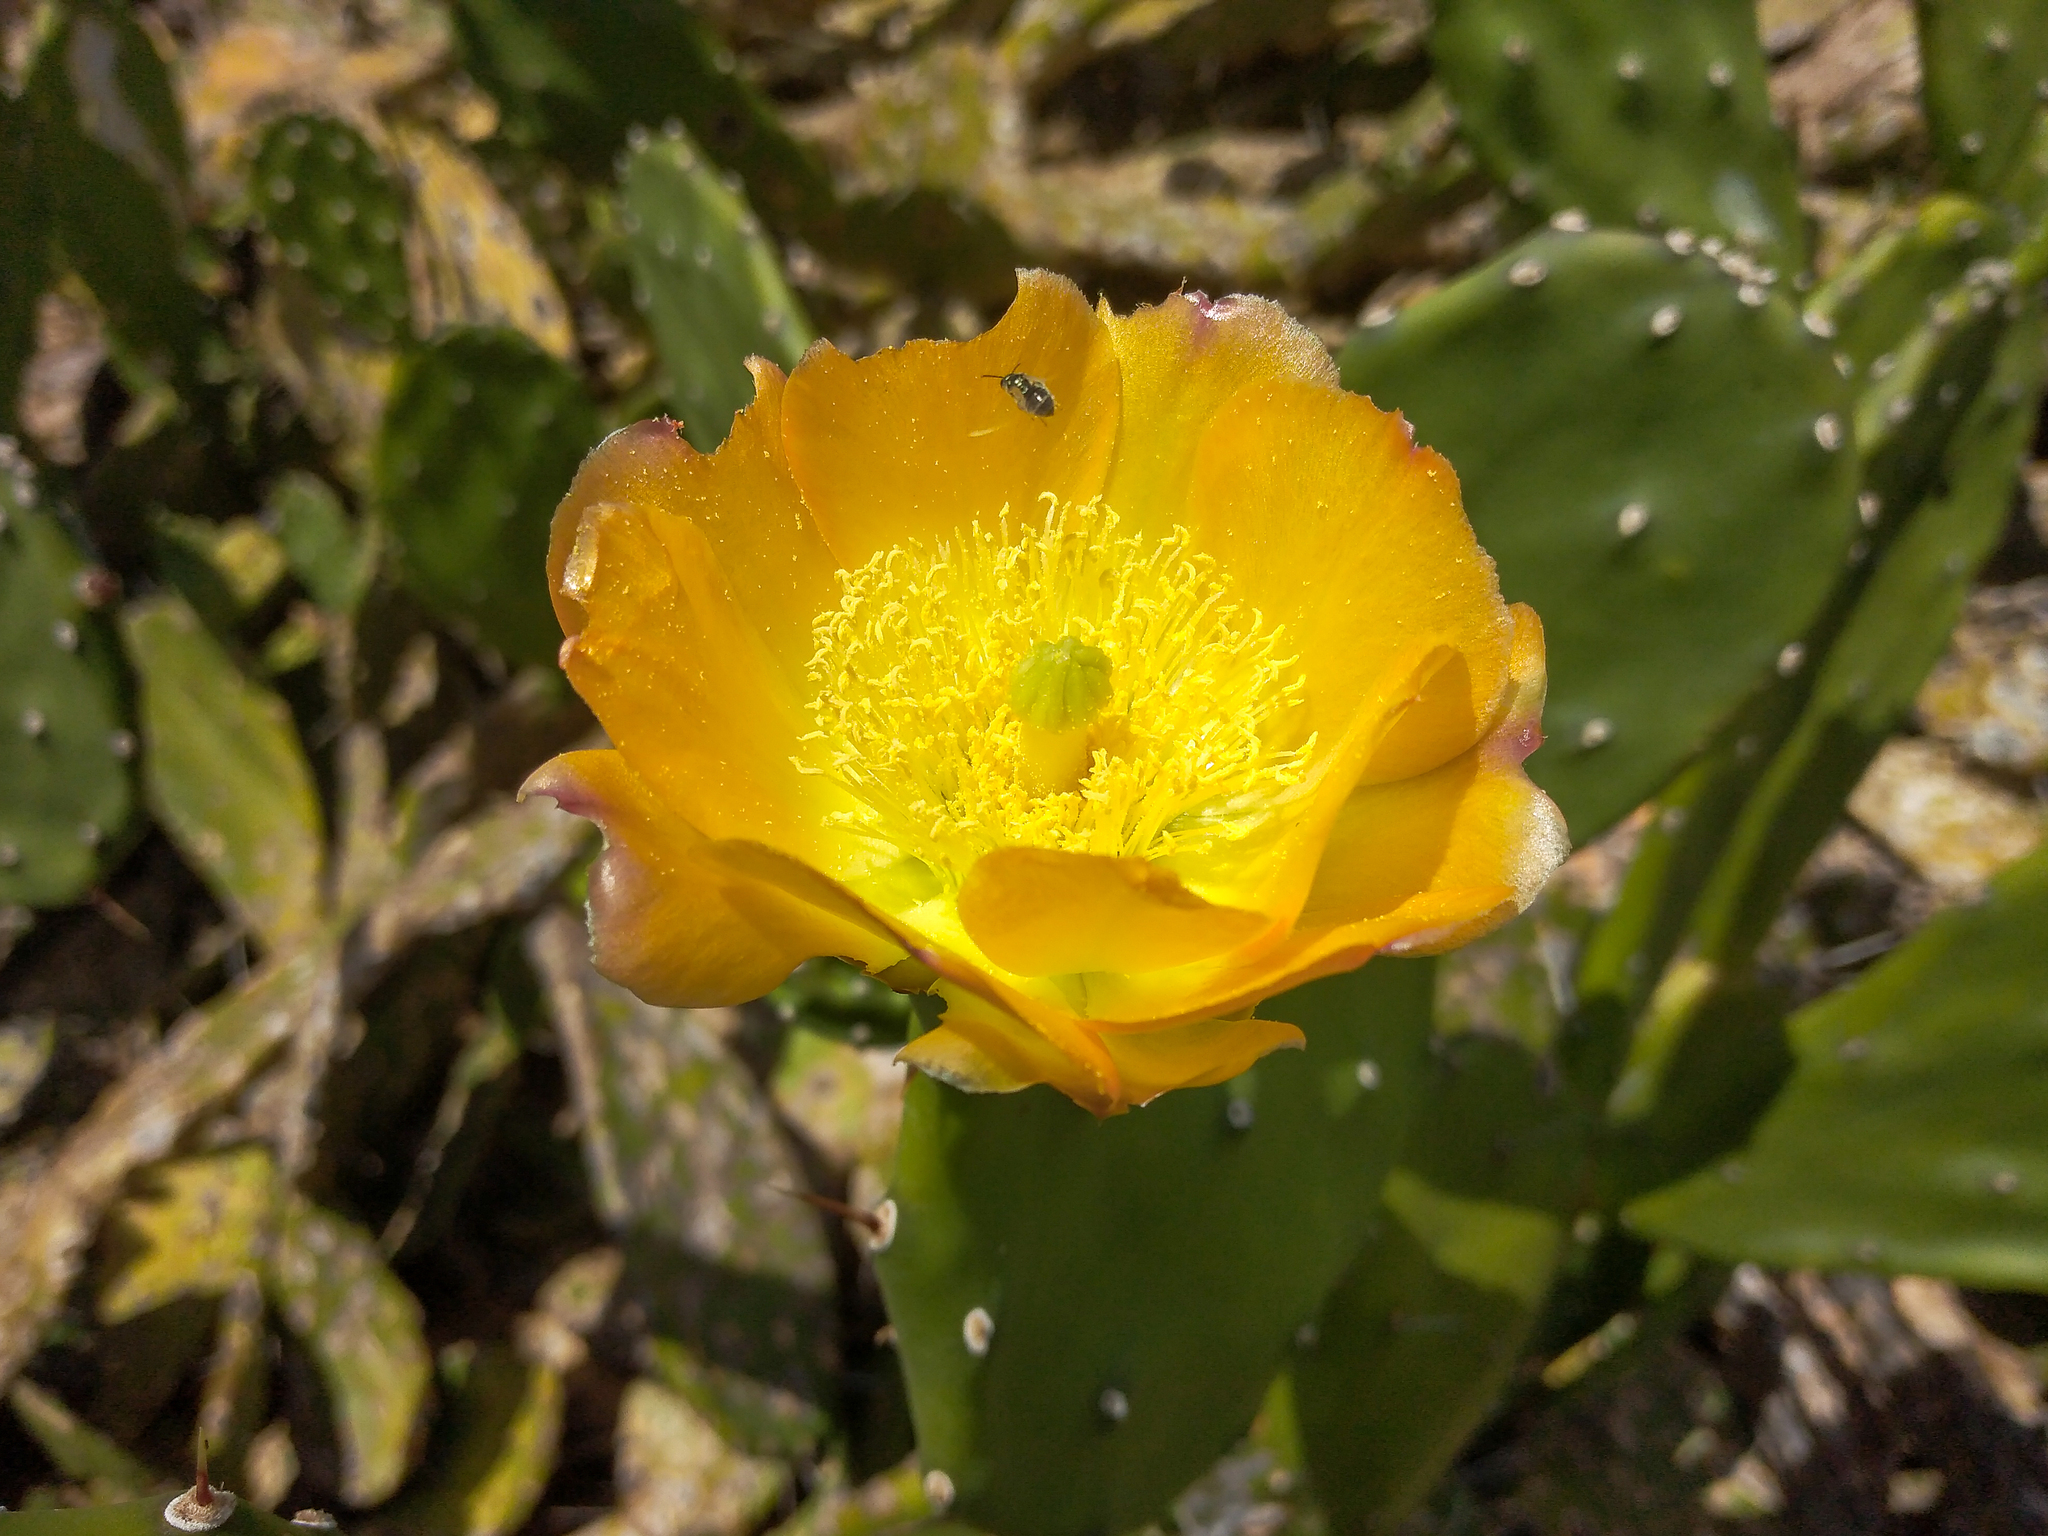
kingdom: Plantae
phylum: Tracheophyta
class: Magnoliopsida
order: Caryophyllales
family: Cactaceae
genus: Opuntia
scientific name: Opuntia elata
